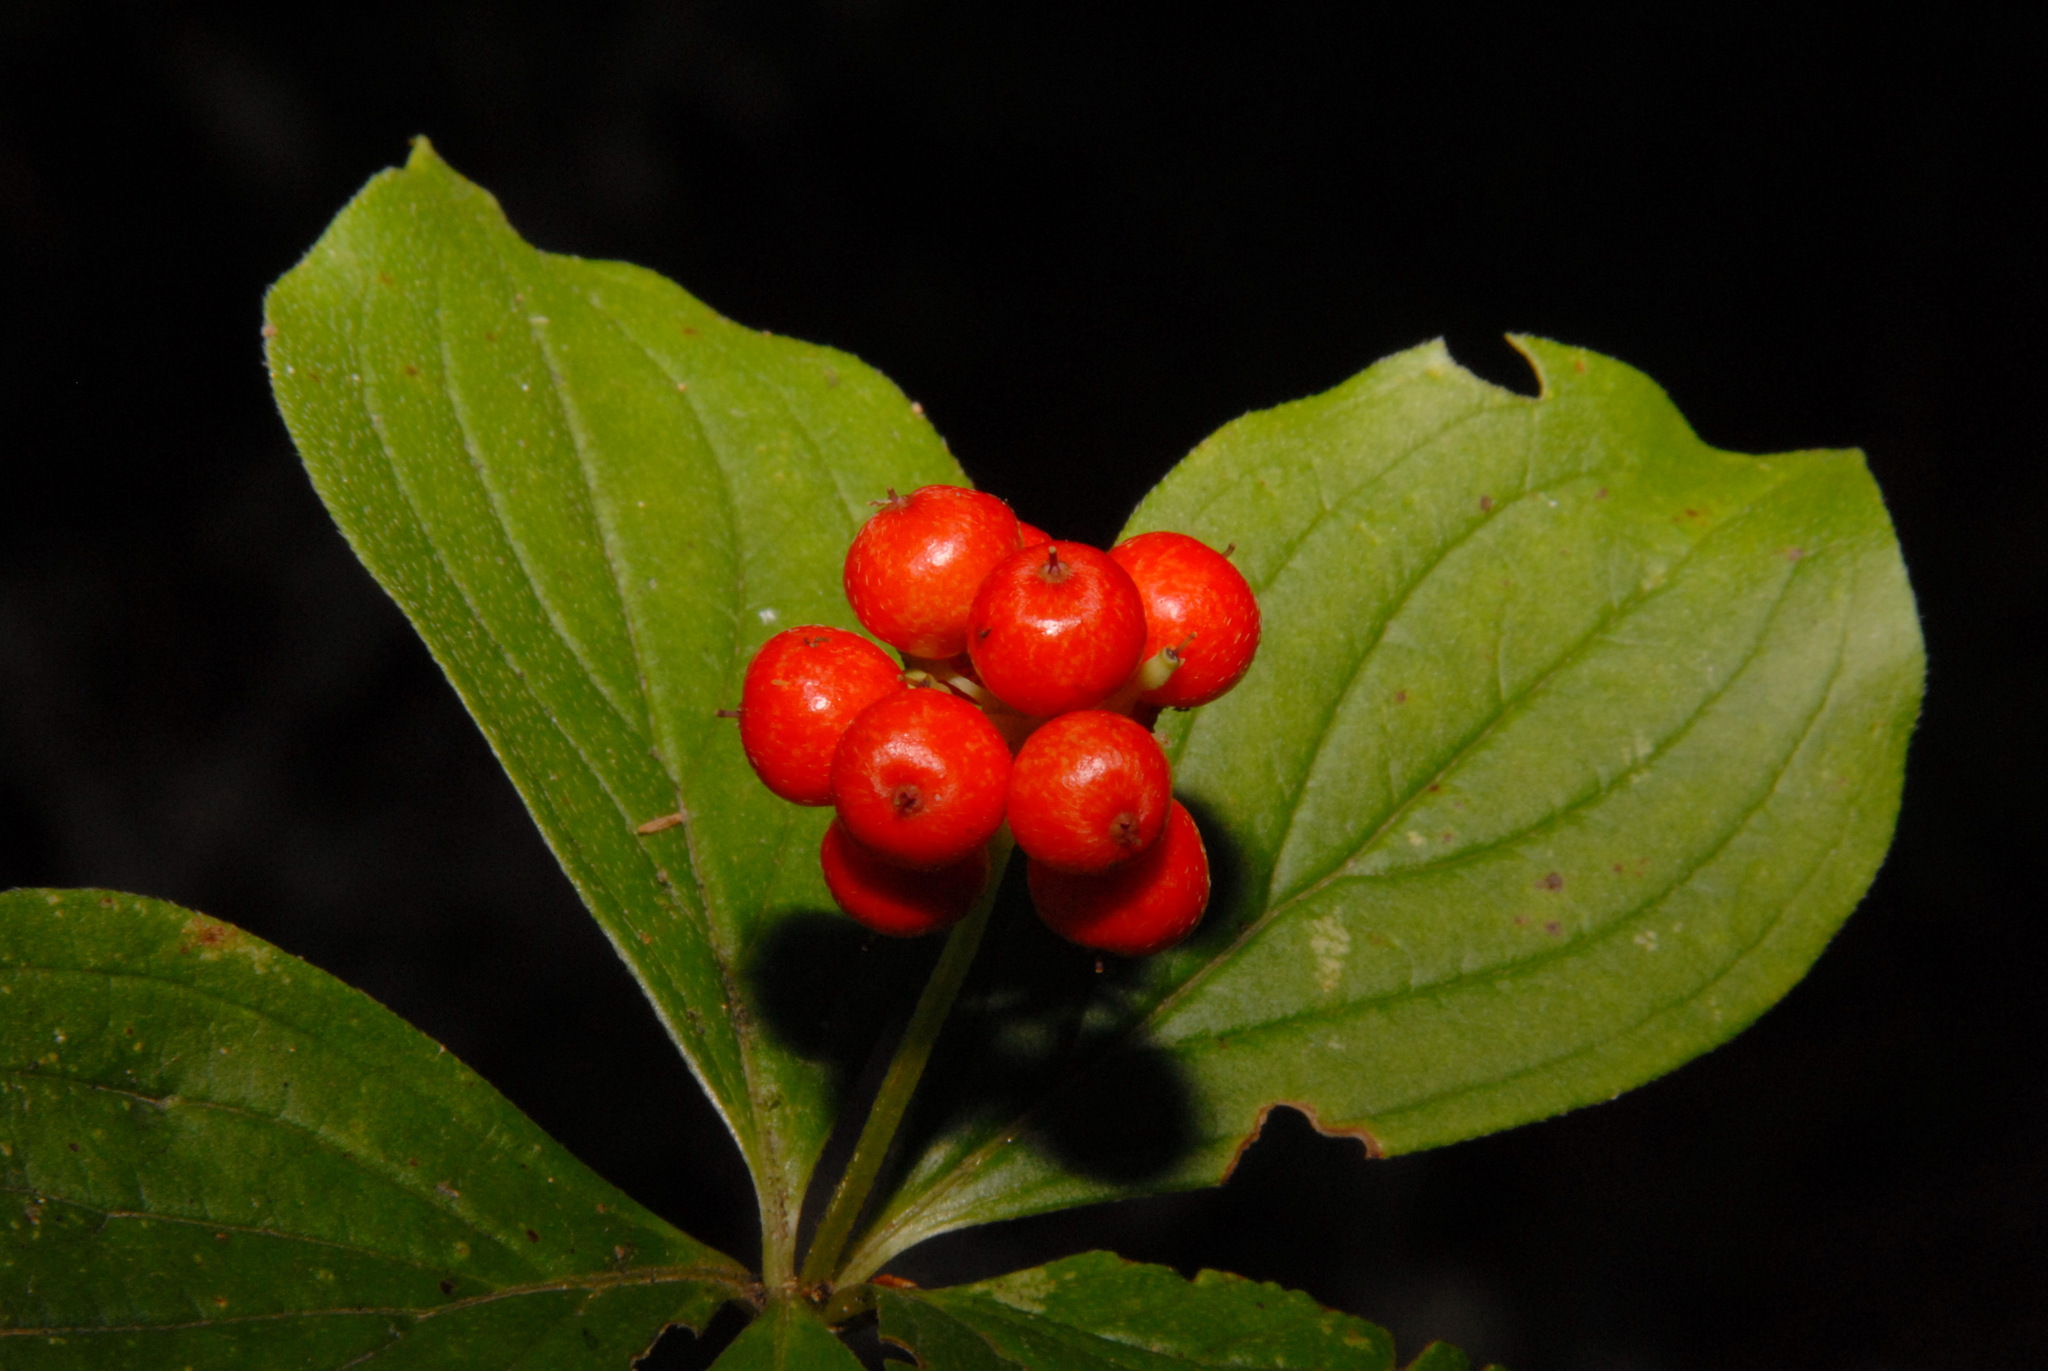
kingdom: Plantae
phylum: Tracheophyta
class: Magnoliopsida
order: Cornales
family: Cornaceae
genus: Cornus
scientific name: Cornus canadensis
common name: Creeping dogwood
